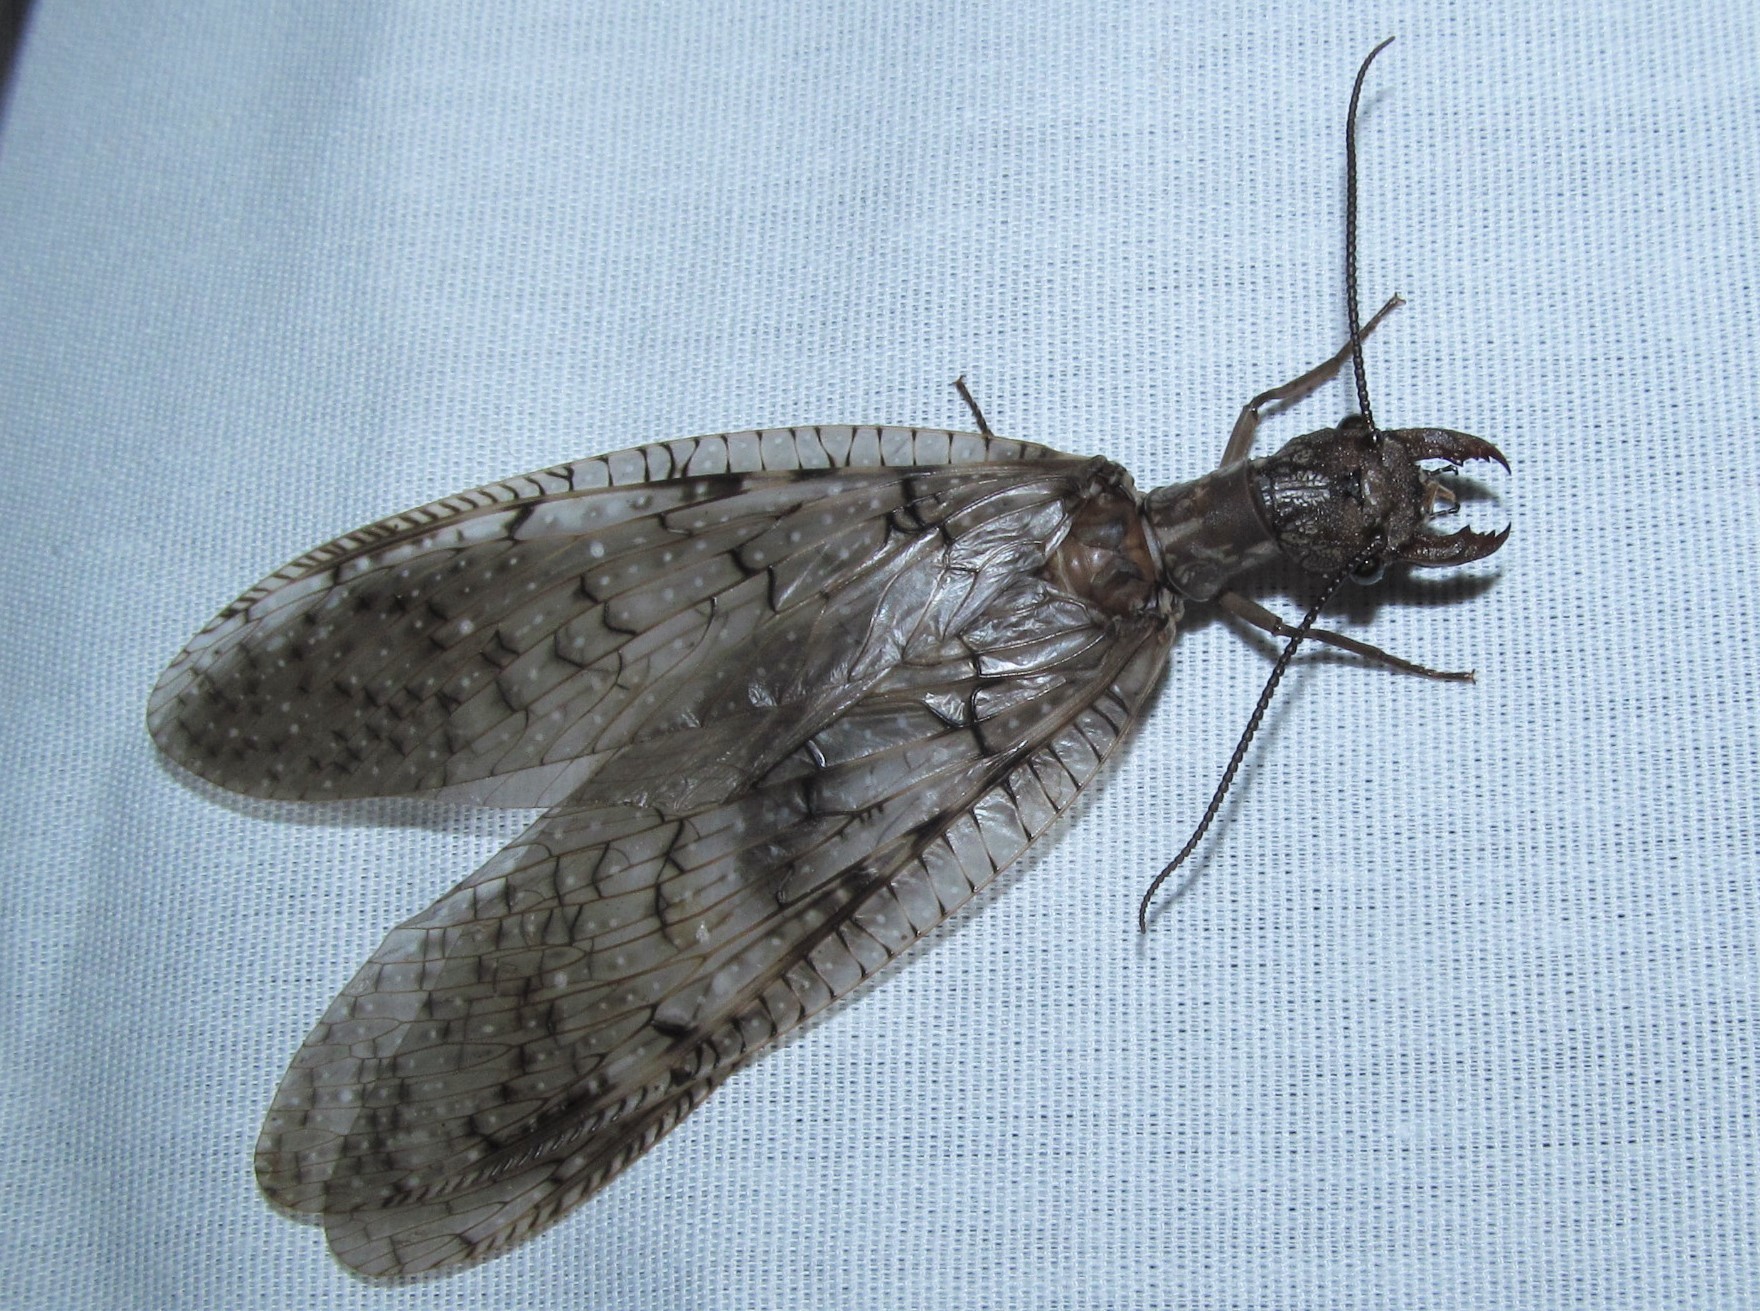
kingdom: Animalia
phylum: Arthropoda
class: Insecta
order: Megaloptera
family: Corydalidae
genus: Corydalus
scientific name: Corydalus cornutus
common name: Dobsonfly
